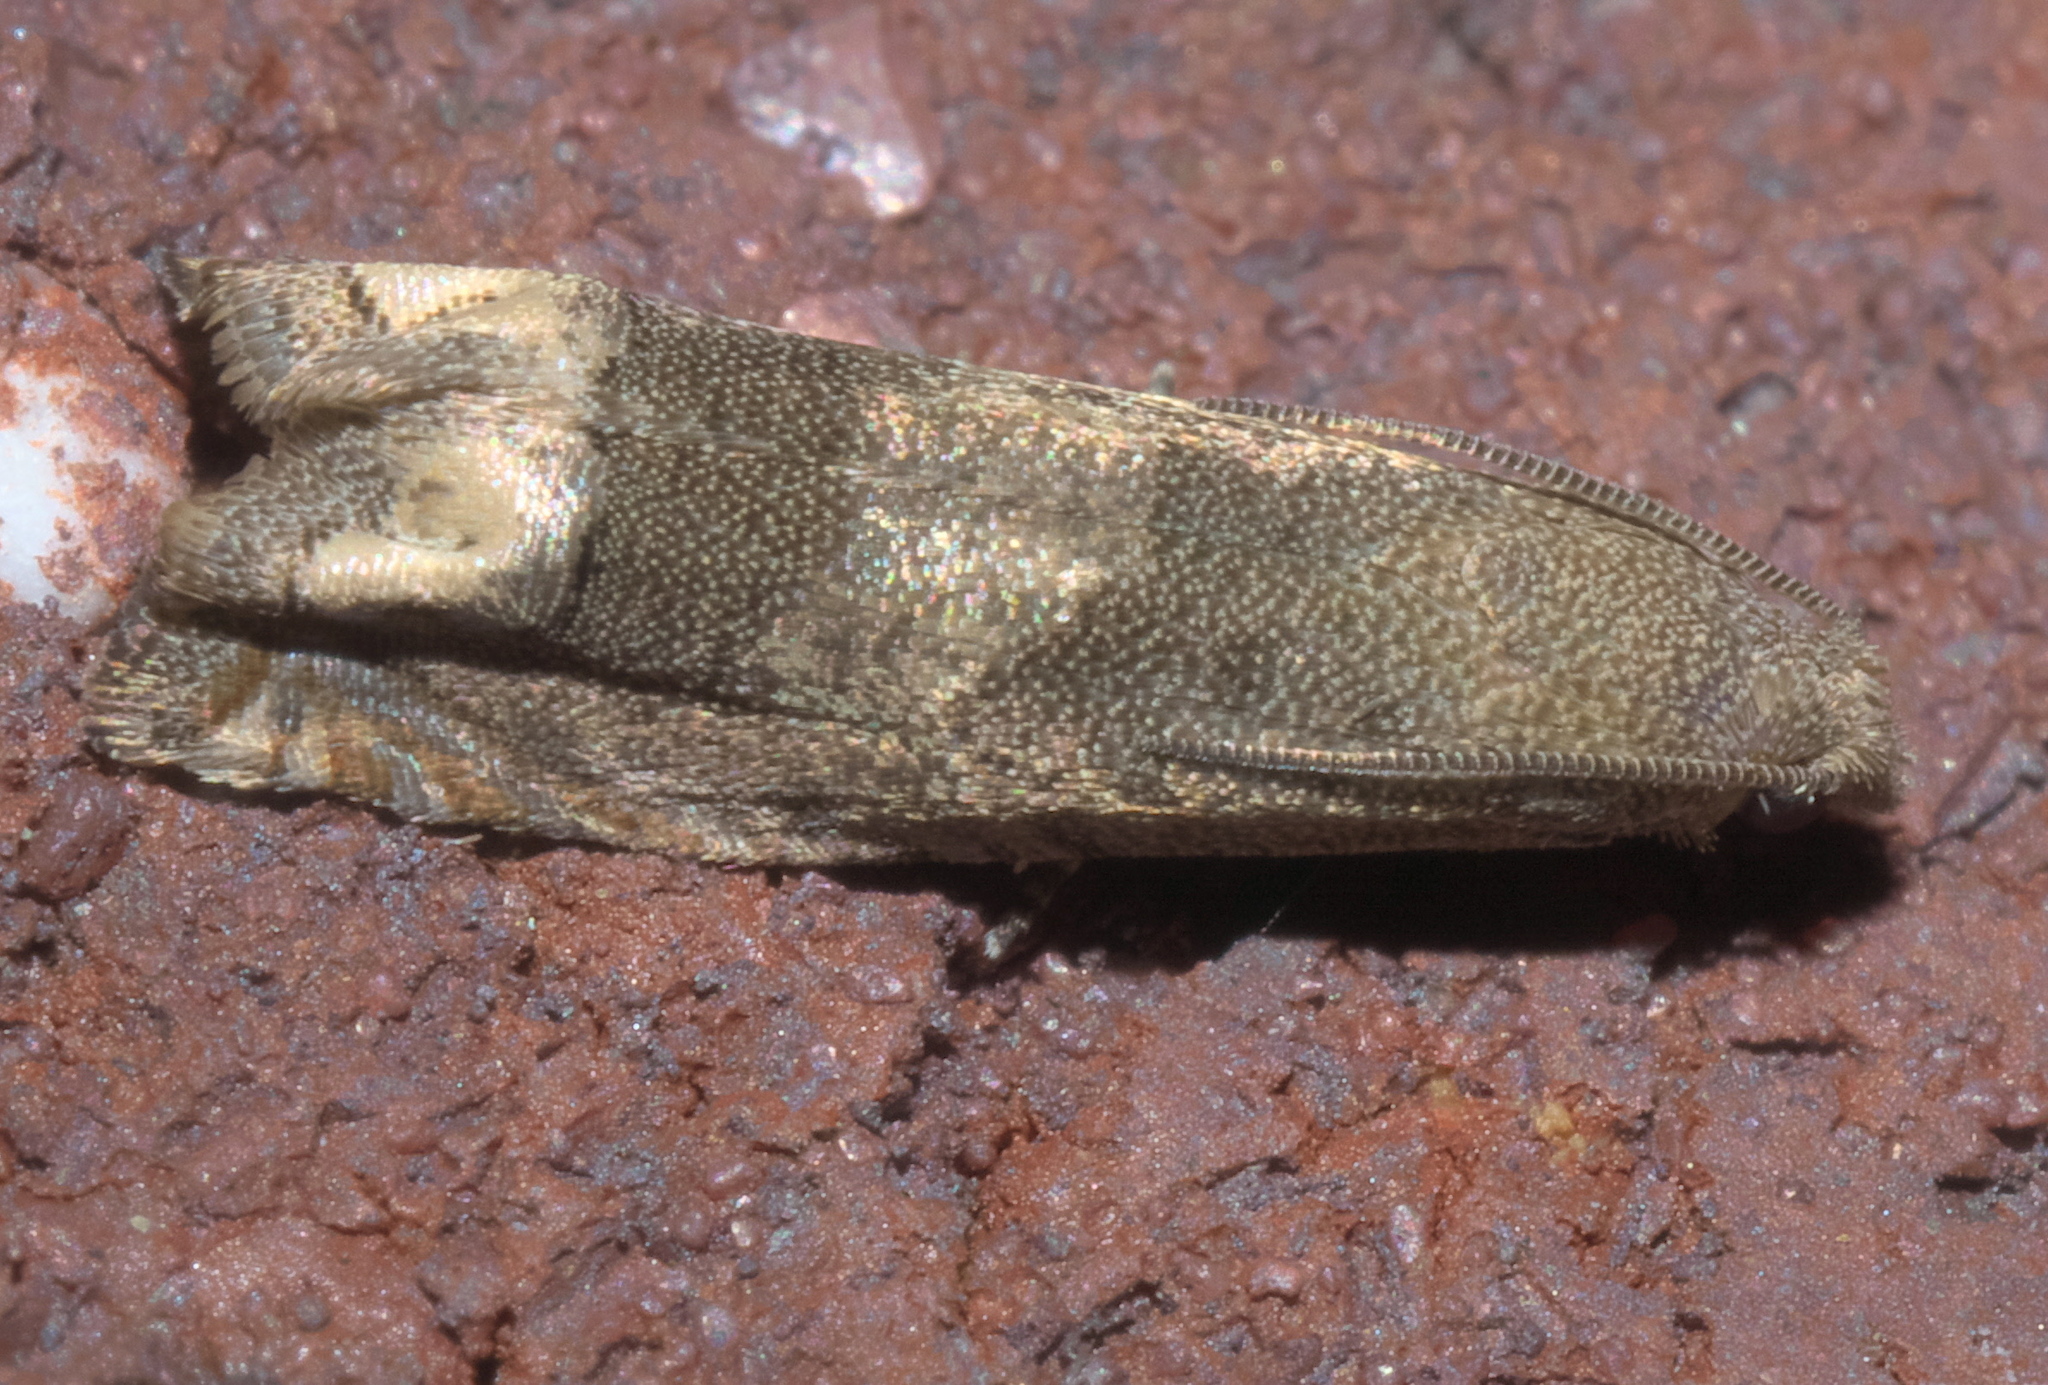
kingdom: Animalia
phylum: Arthropoda
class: Insecta
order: Lepidoptera
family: Tortricidae
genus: Epiblema
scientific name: Epiblema strenuana
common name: Ragweed borer moth
